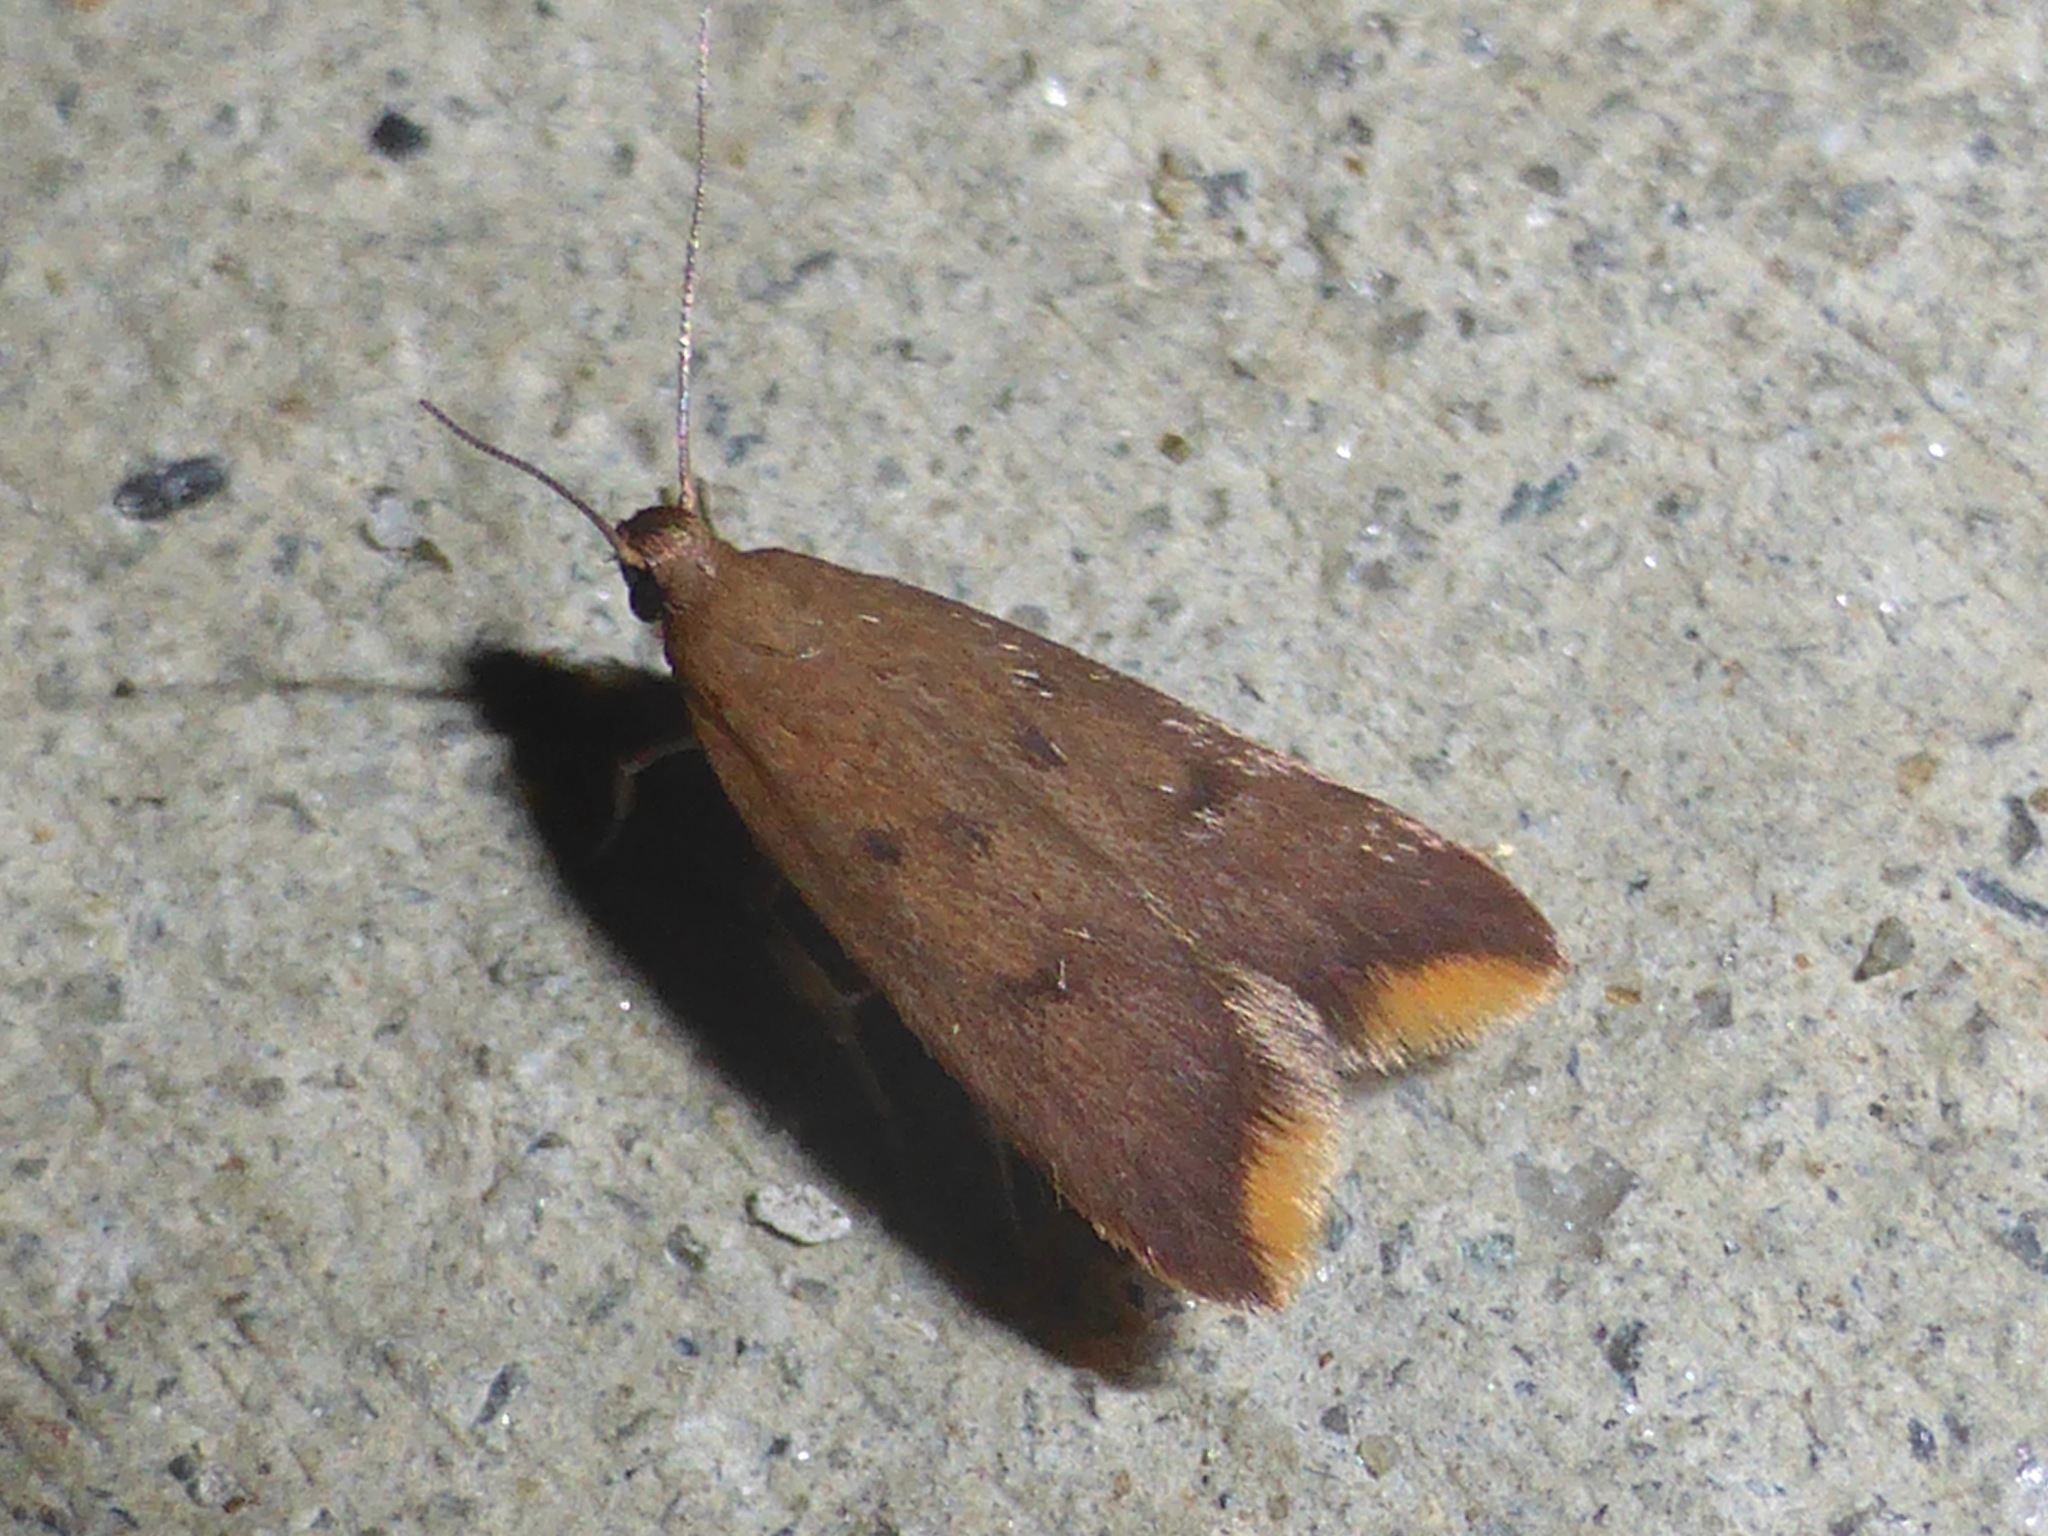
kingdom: Animalia
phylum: Arthropoda
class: Insecta
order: Lepidoptera
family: Oecophoridae
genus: Tachystola
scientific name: Tachystola acroxantha
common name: Ruddy streak
